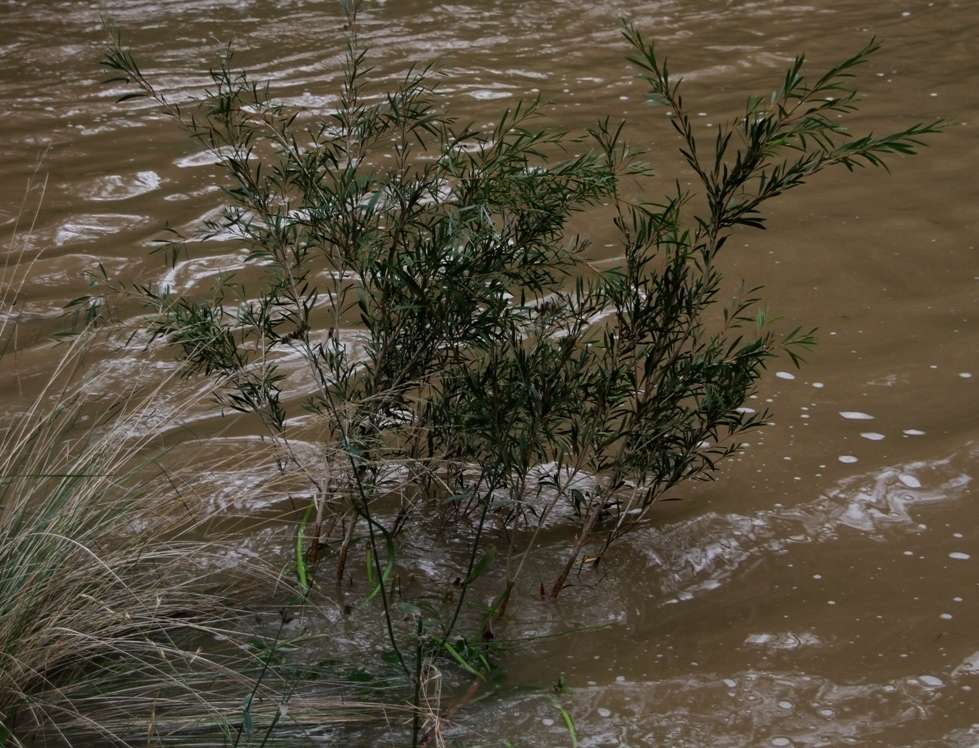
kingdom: Plantae
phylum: Tracheophyta
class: Magnoliopsida
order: Myrtales
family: Myrtaceae
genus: Callistemon
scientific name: Callistemon paludosus
